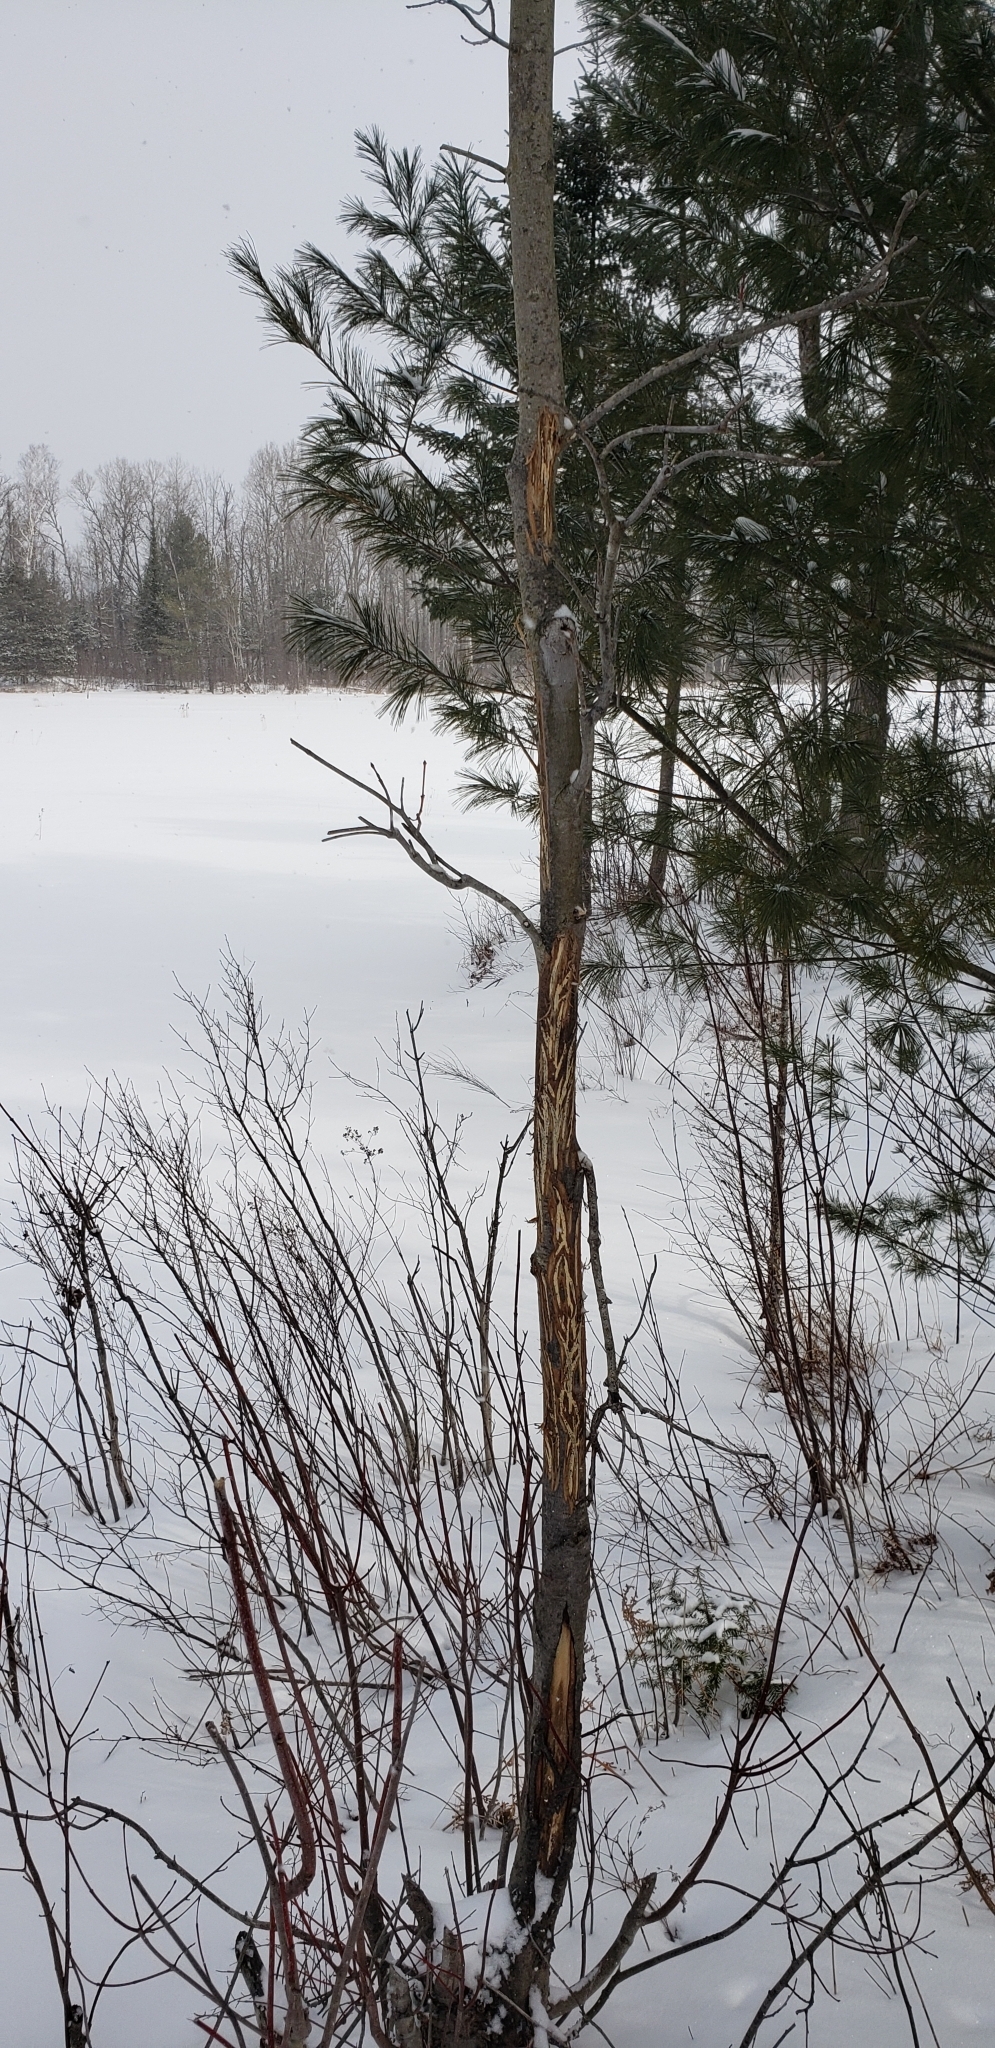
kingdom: Animalia
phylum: Chordata
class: Mammalia
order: Artiodactyla
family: Cervidae
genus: Alces
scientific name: Alces alces
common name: Moose
